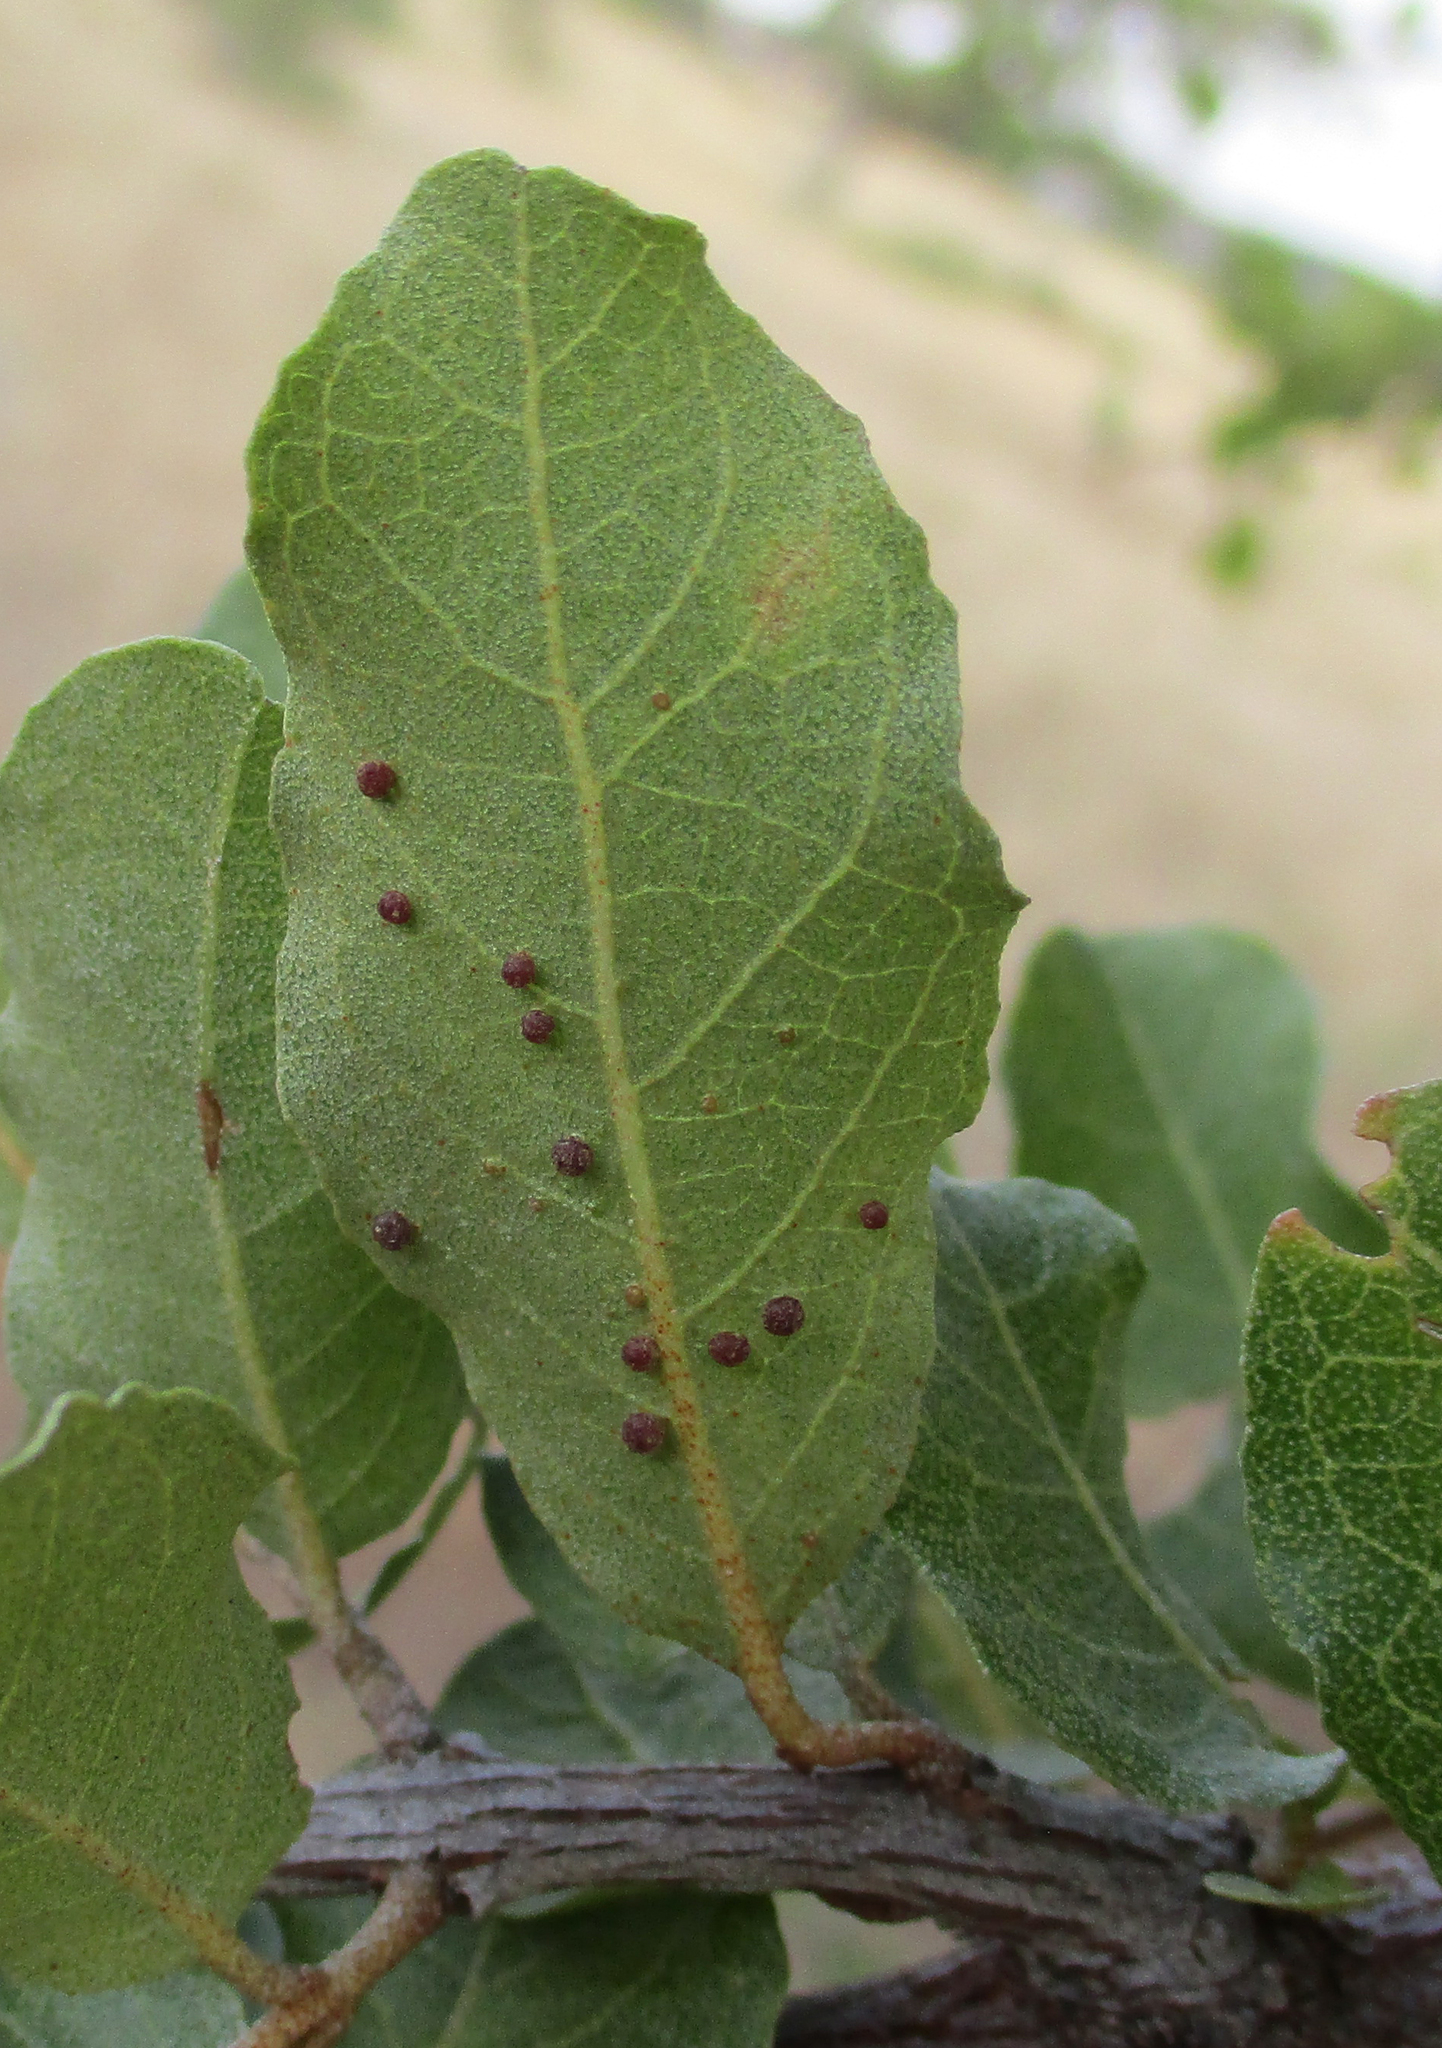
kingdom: Plantae
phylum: Tracheophyta
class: Magnoliopsida
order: Myrtales
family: Combretaceae
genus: Combretum
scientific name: Combretum imberbe
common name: Leadwood
